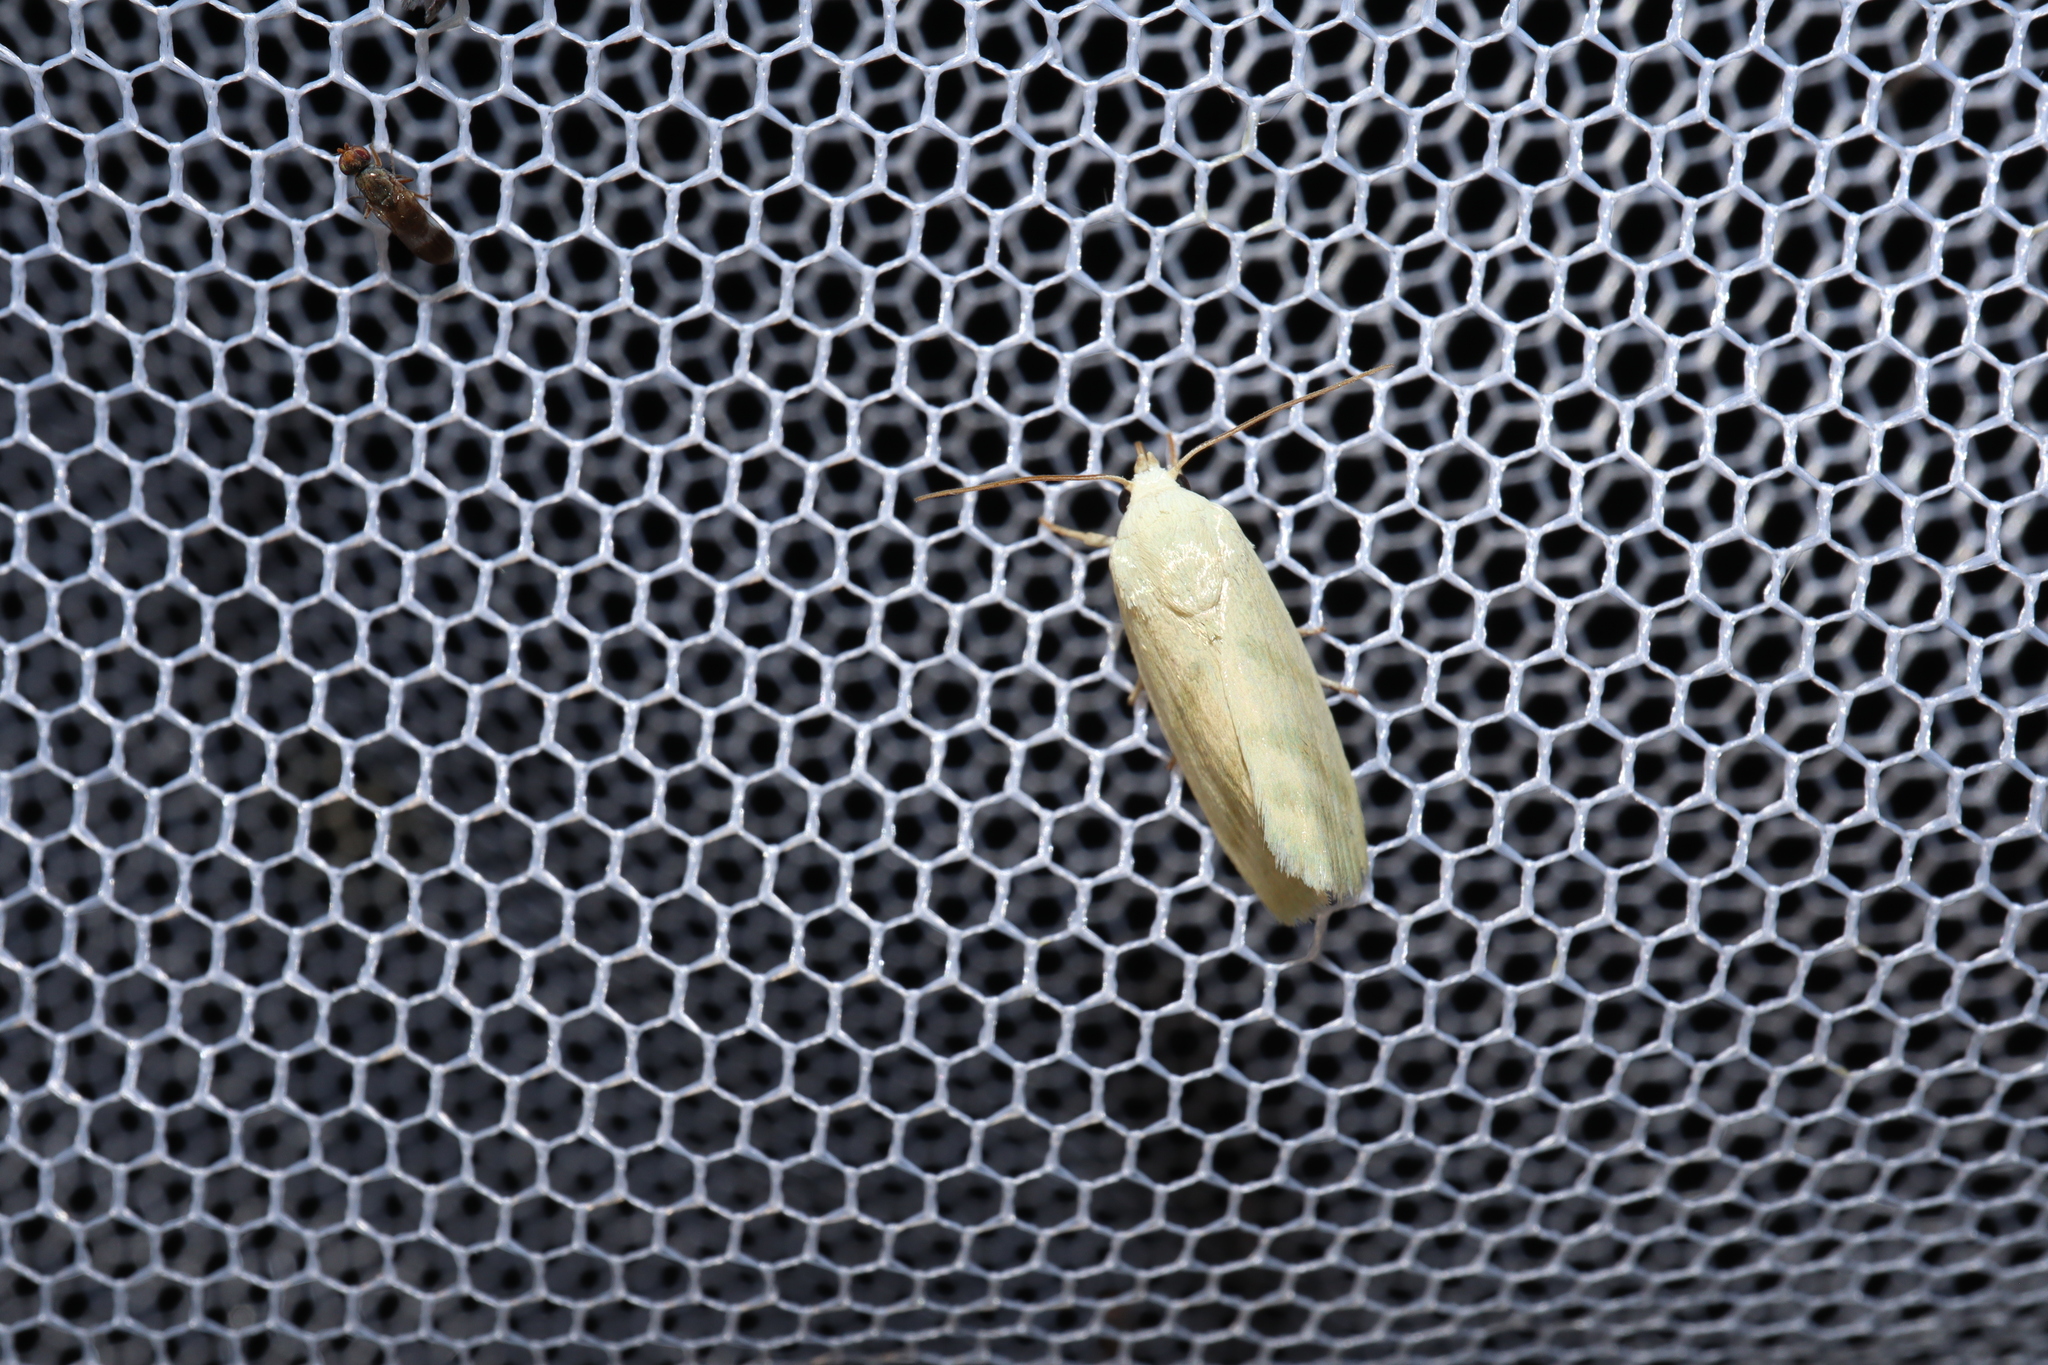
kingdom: Animalia
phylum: Arthropoda
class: Insecta
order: Lepidoptera
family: Nolidae
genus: Earias
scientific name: Earias paralella
